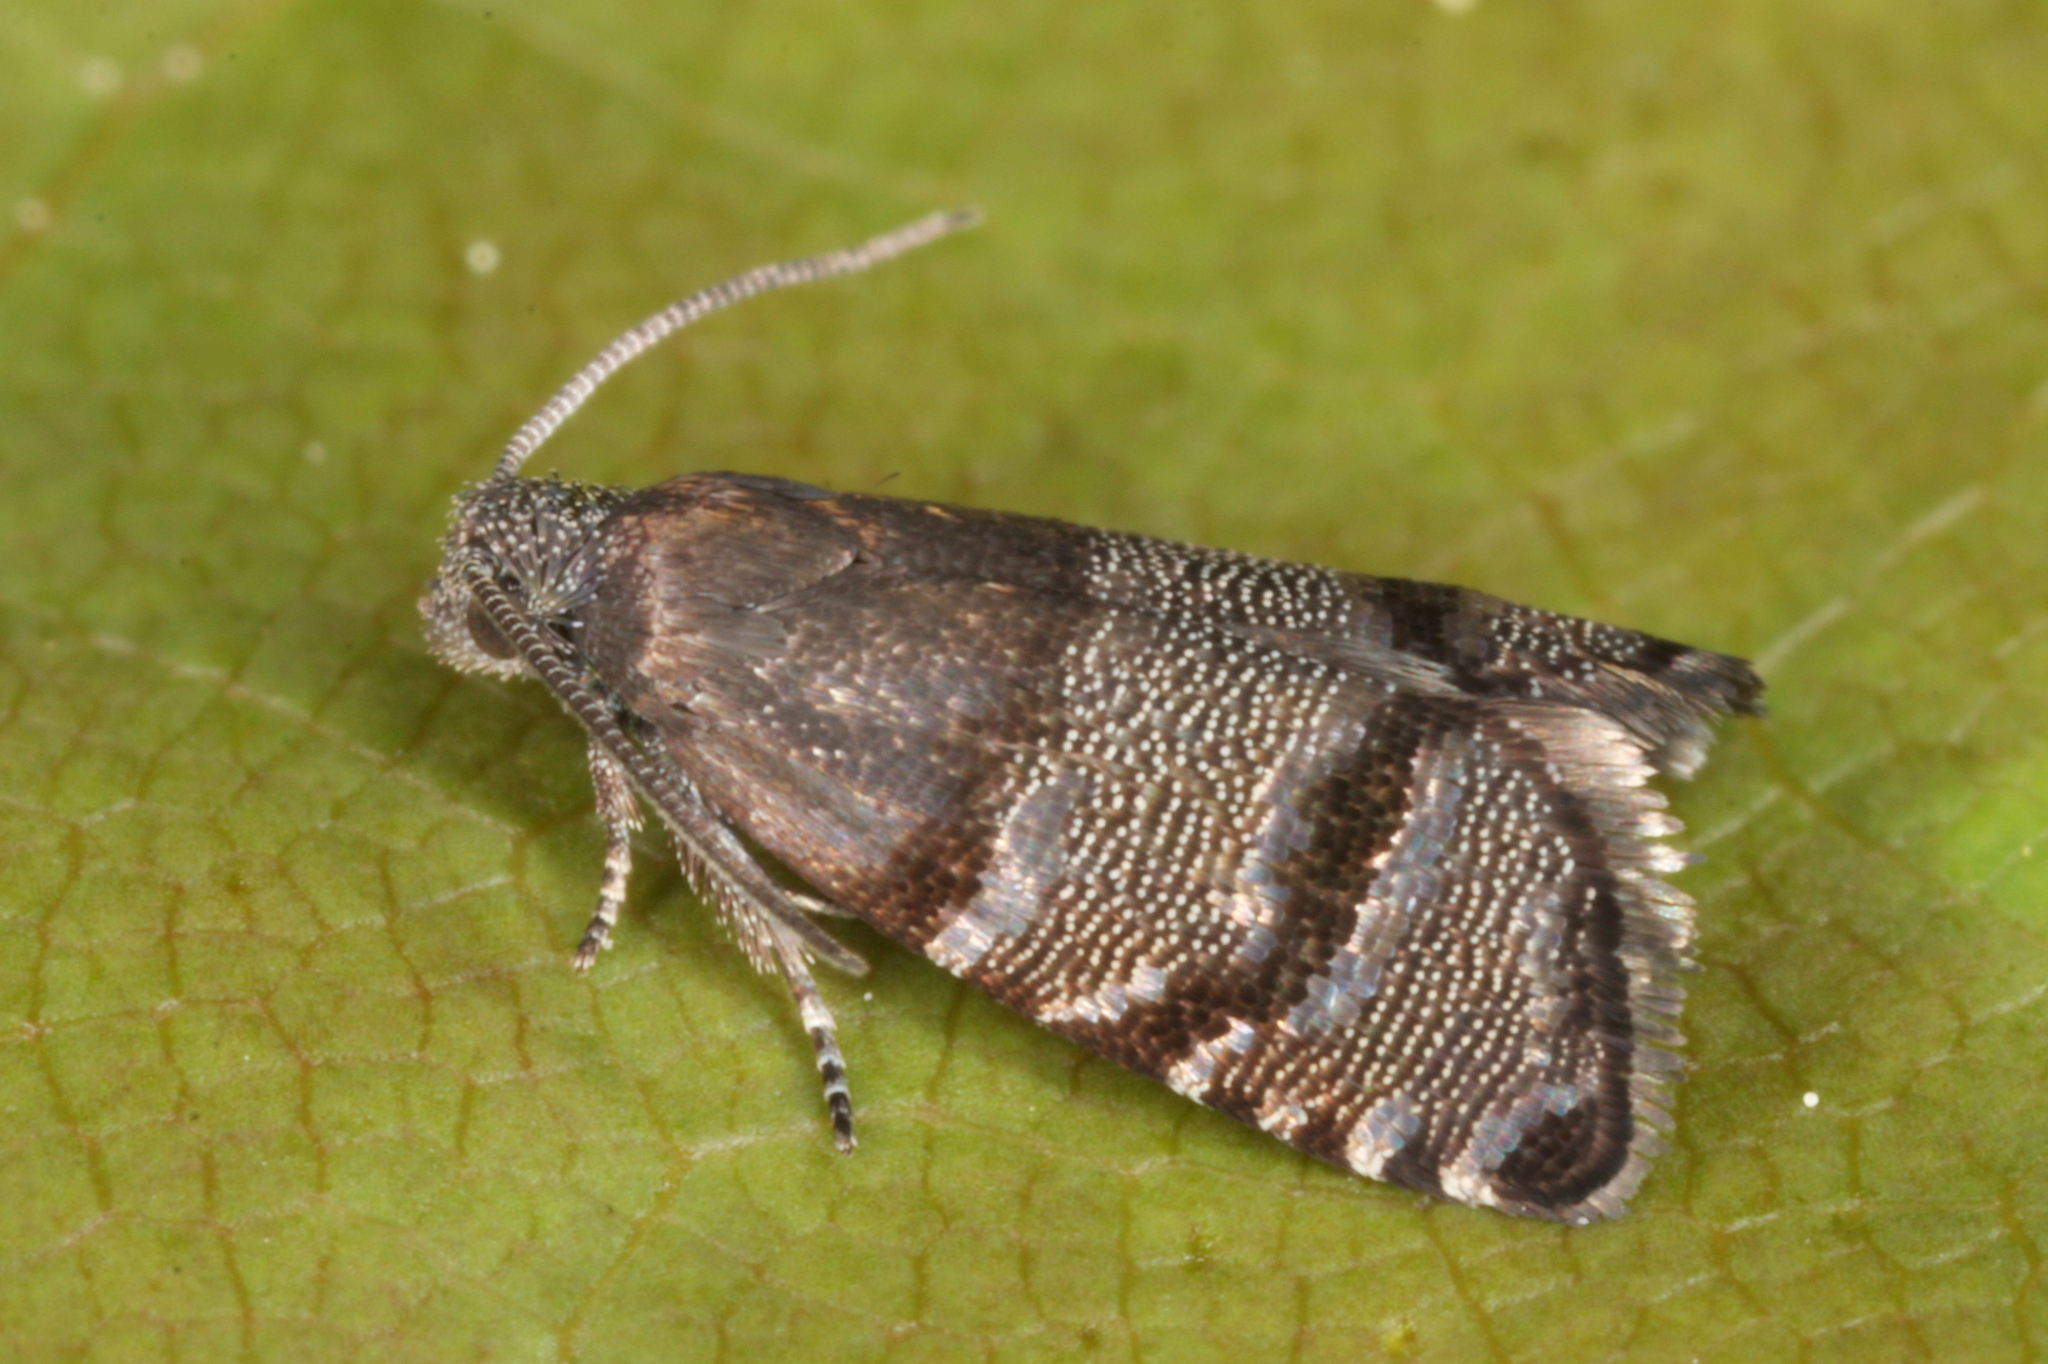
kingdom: Animalia
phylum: Arthropoda
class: Insecta
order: Lepidoptera
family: Tortricidae
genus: Pammene
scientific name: Pammene ochsenheimeriana
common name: Black-patch piercer
